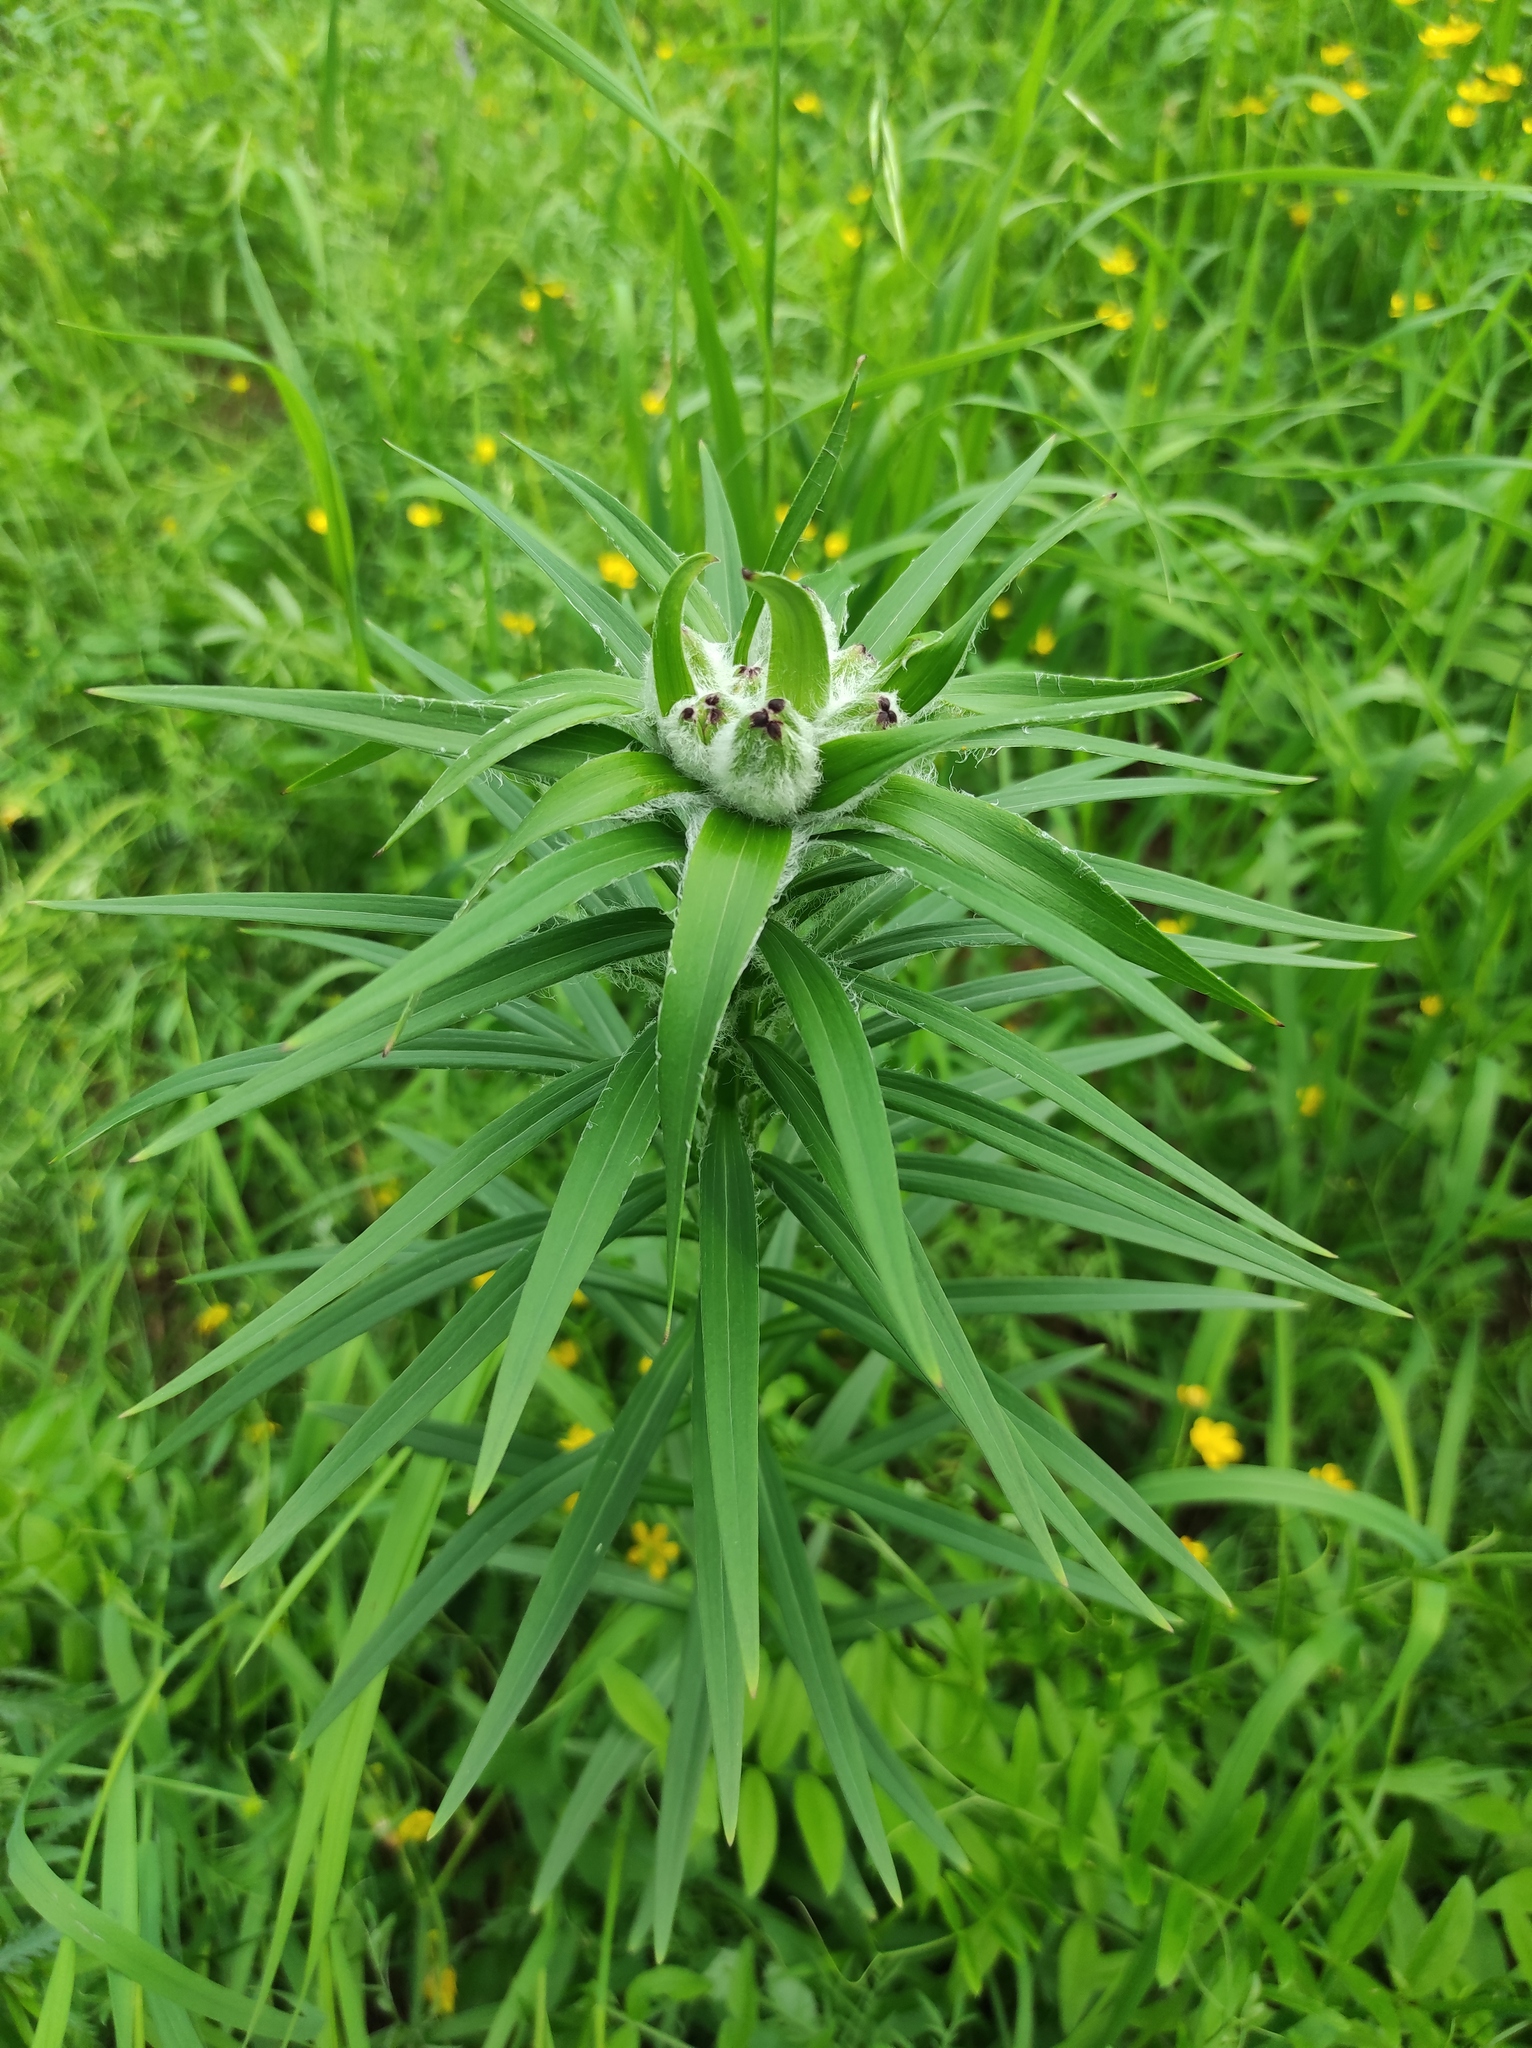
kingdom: Plantae
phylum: Tracheophyta
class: Liliopsida
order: Liliales
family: Liliaceae
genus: Lilium
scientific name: Lilium pensylvanicum
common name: Candlestick lily
